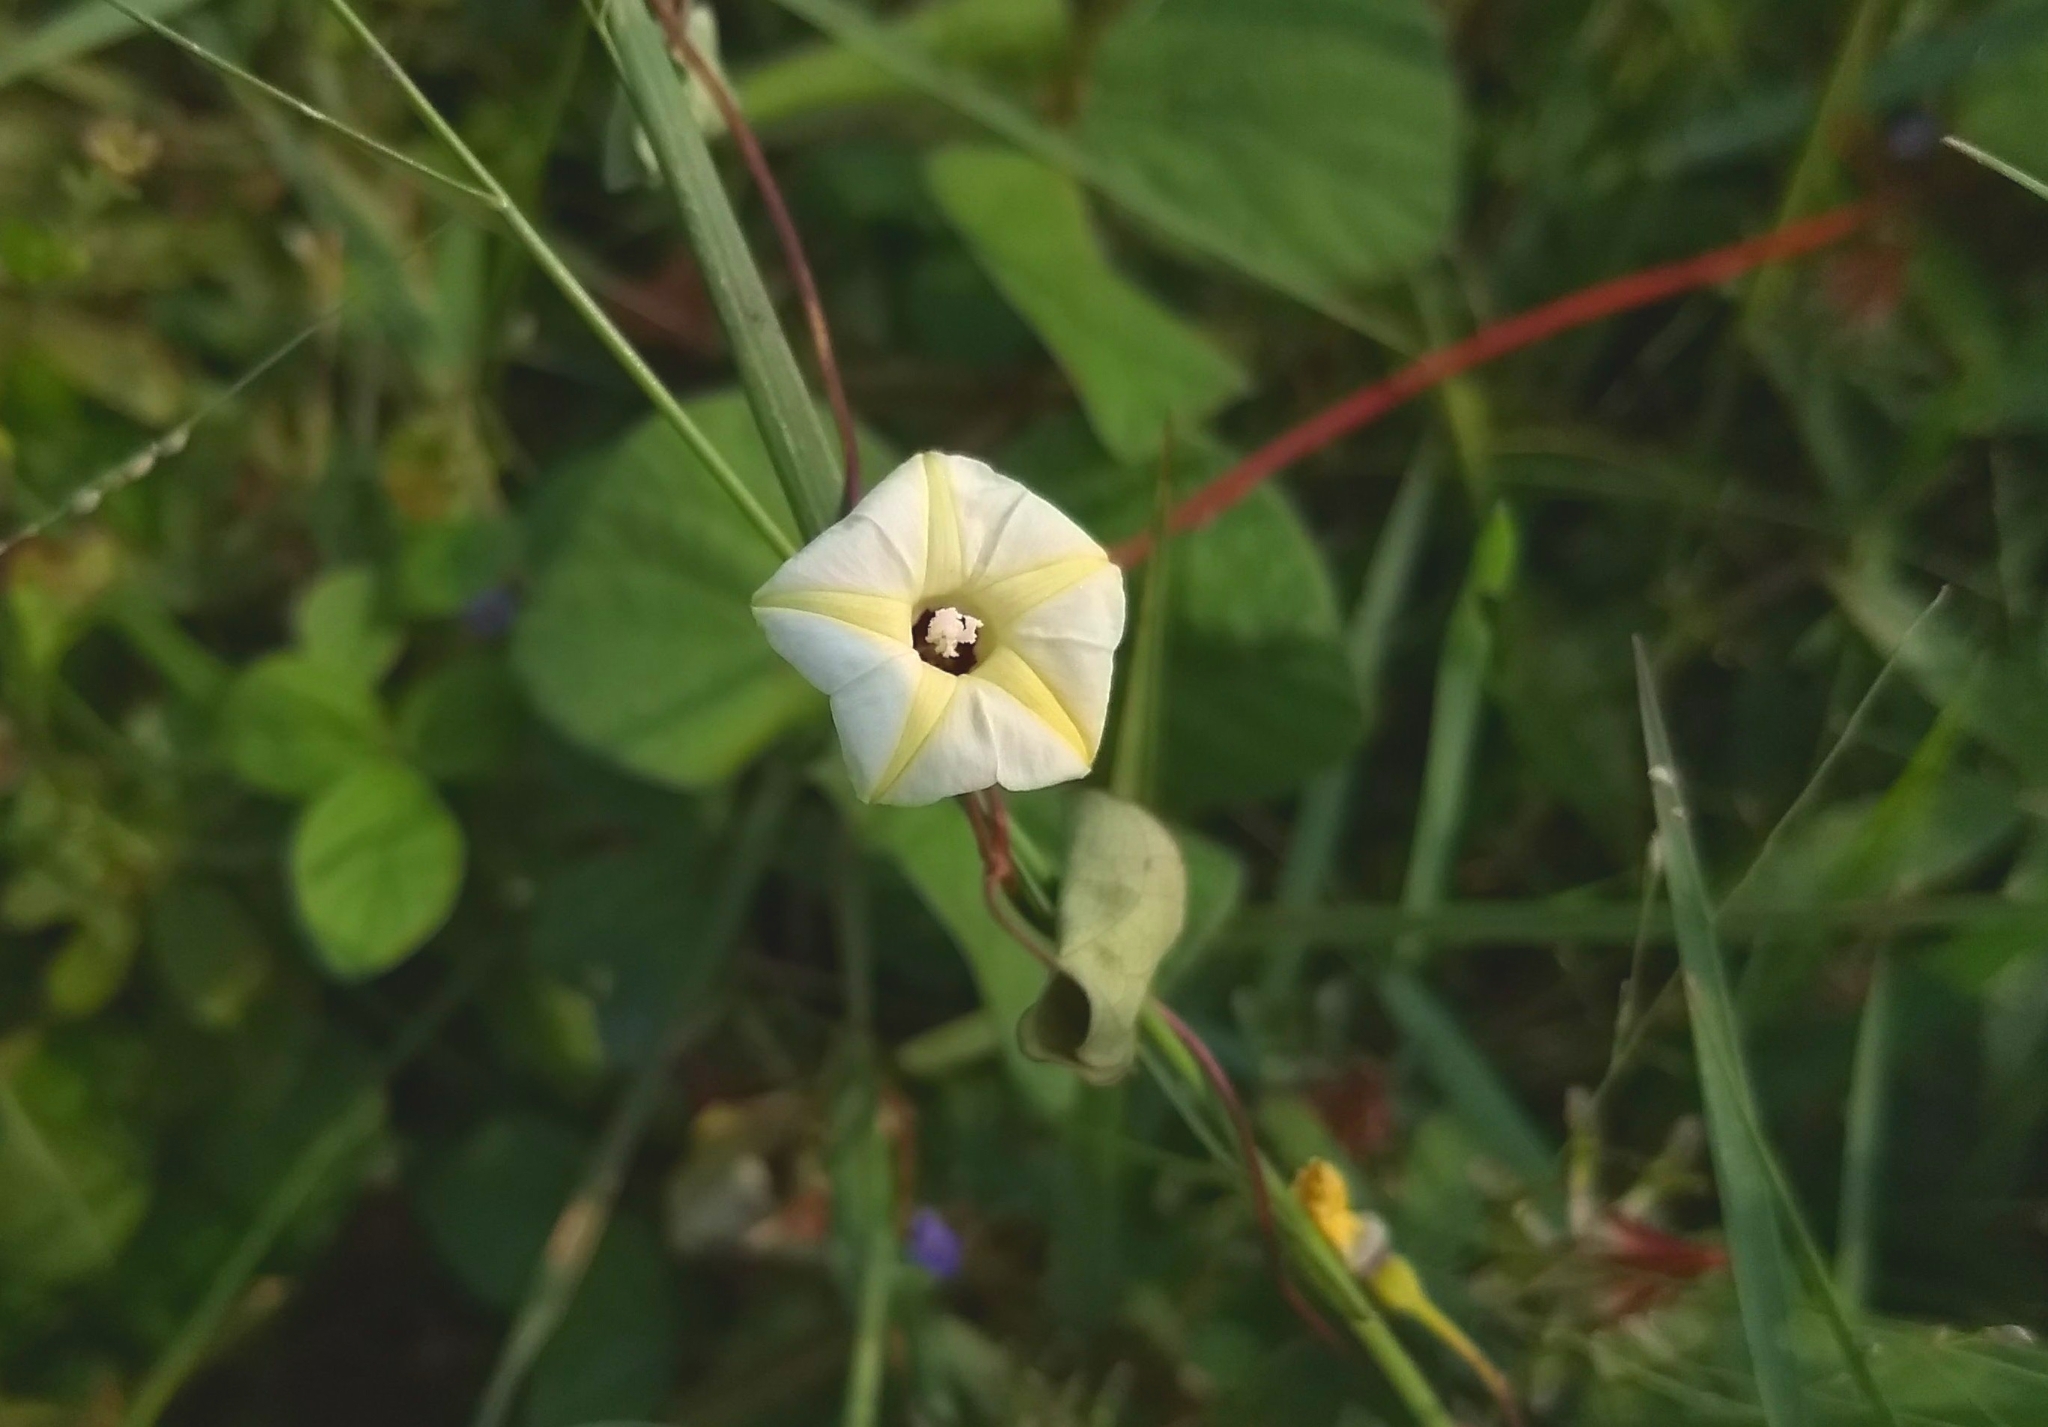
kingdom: Plantae
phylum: Tracheophyta
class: Magnoliopsida
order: Solanales
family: Convolvulaceae
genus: Ipomoea
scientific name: Ipomoea obscura
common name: Obscure morning-glory
